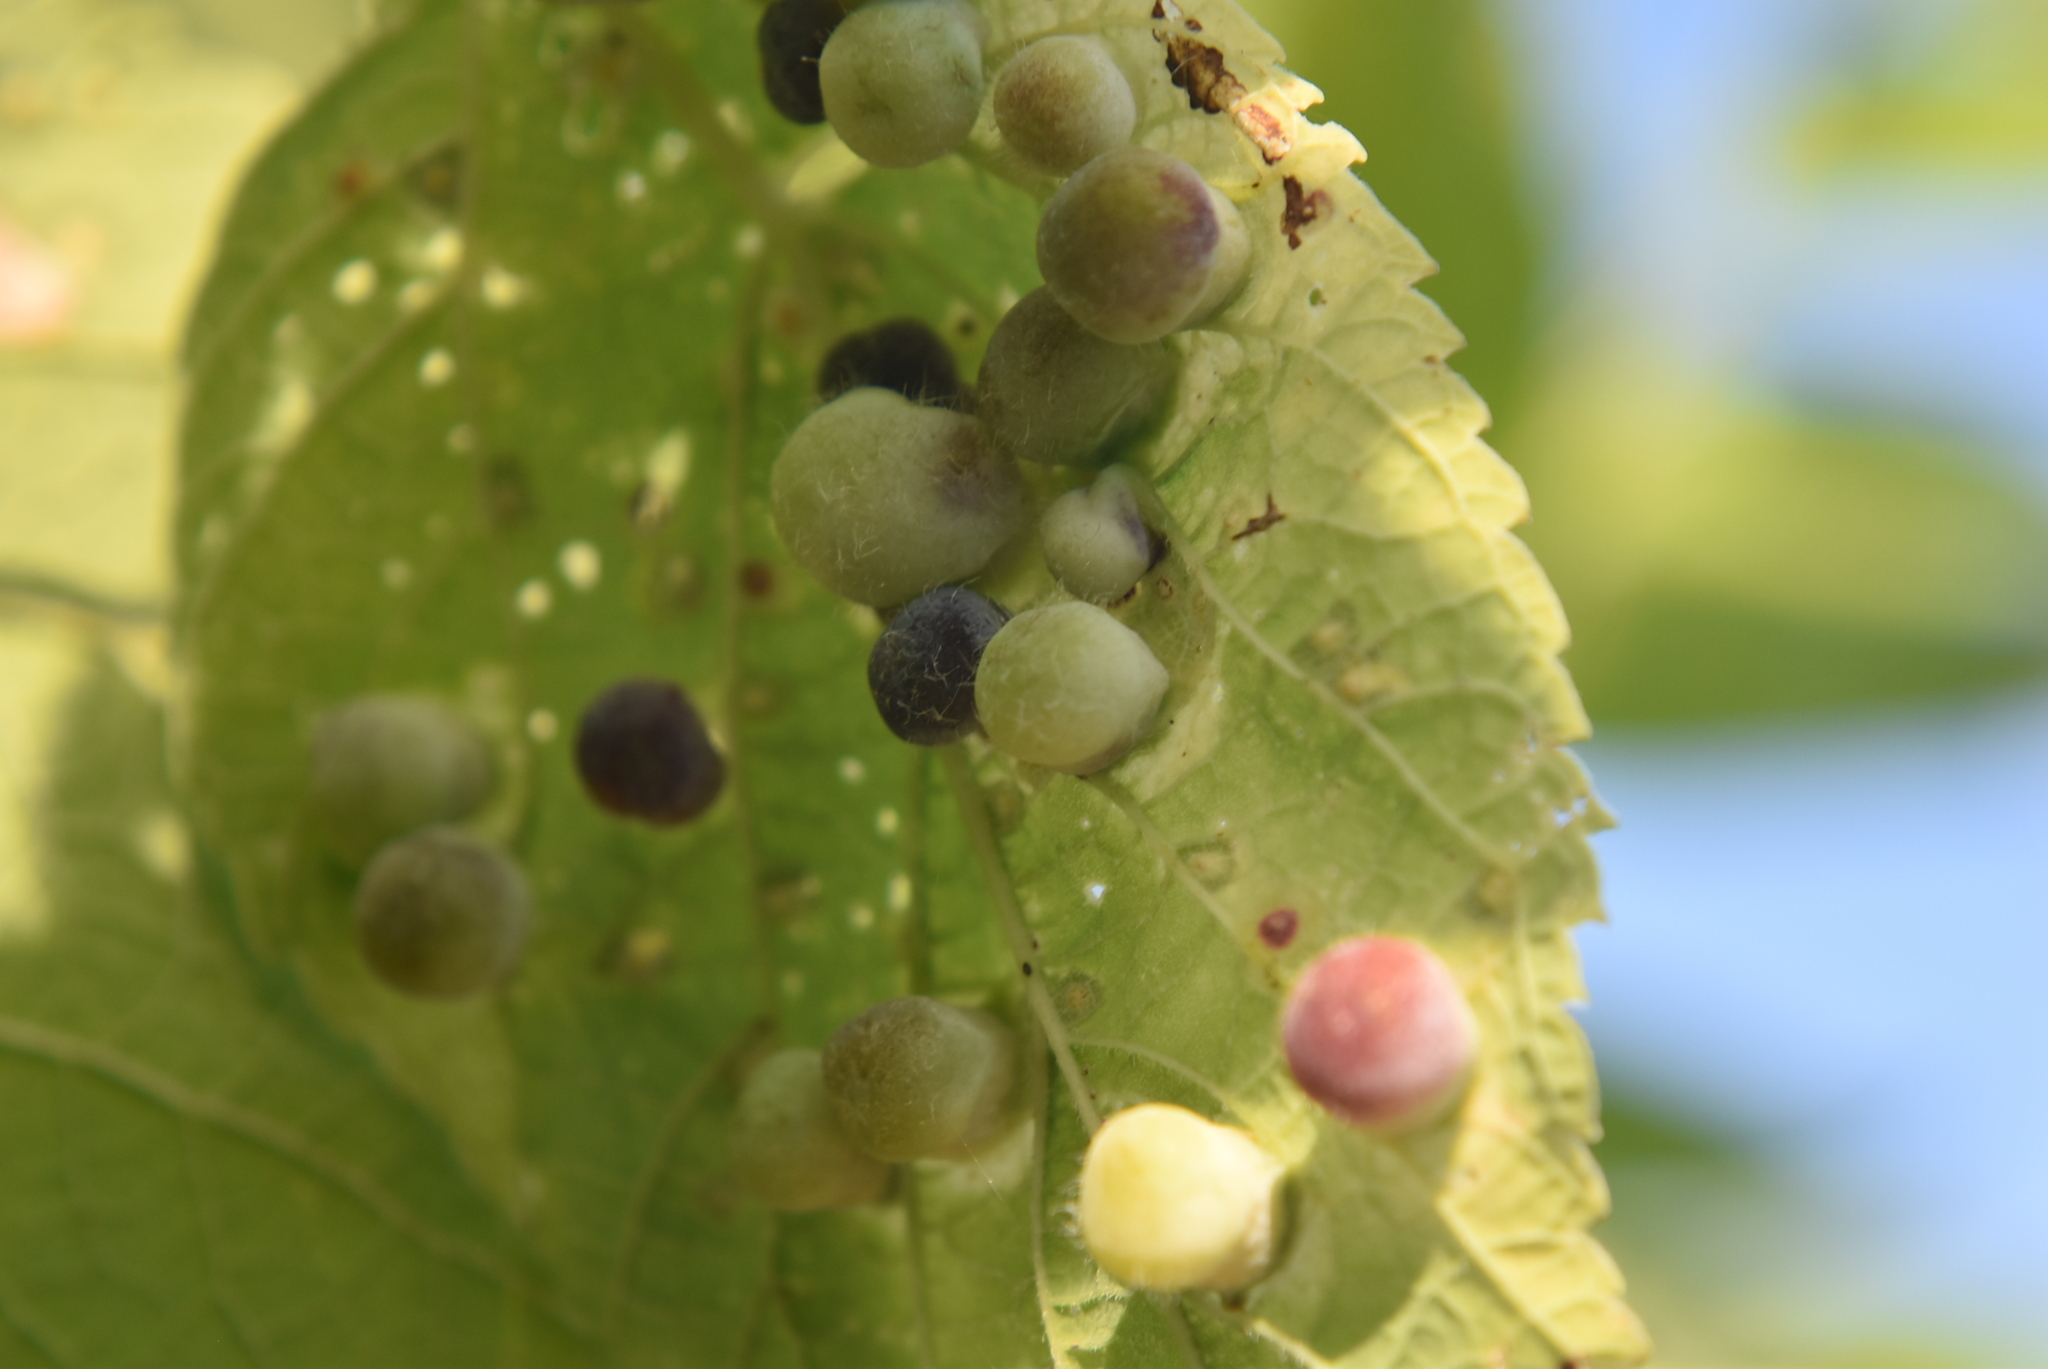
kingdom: Animalia
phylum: Arthropoda
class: Insecta
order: Hemiptera
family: Aphalaridae
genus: Pachypsylla
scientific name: Pachypsylla celtidismamma
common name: Hackberry nipplegall psyllid
